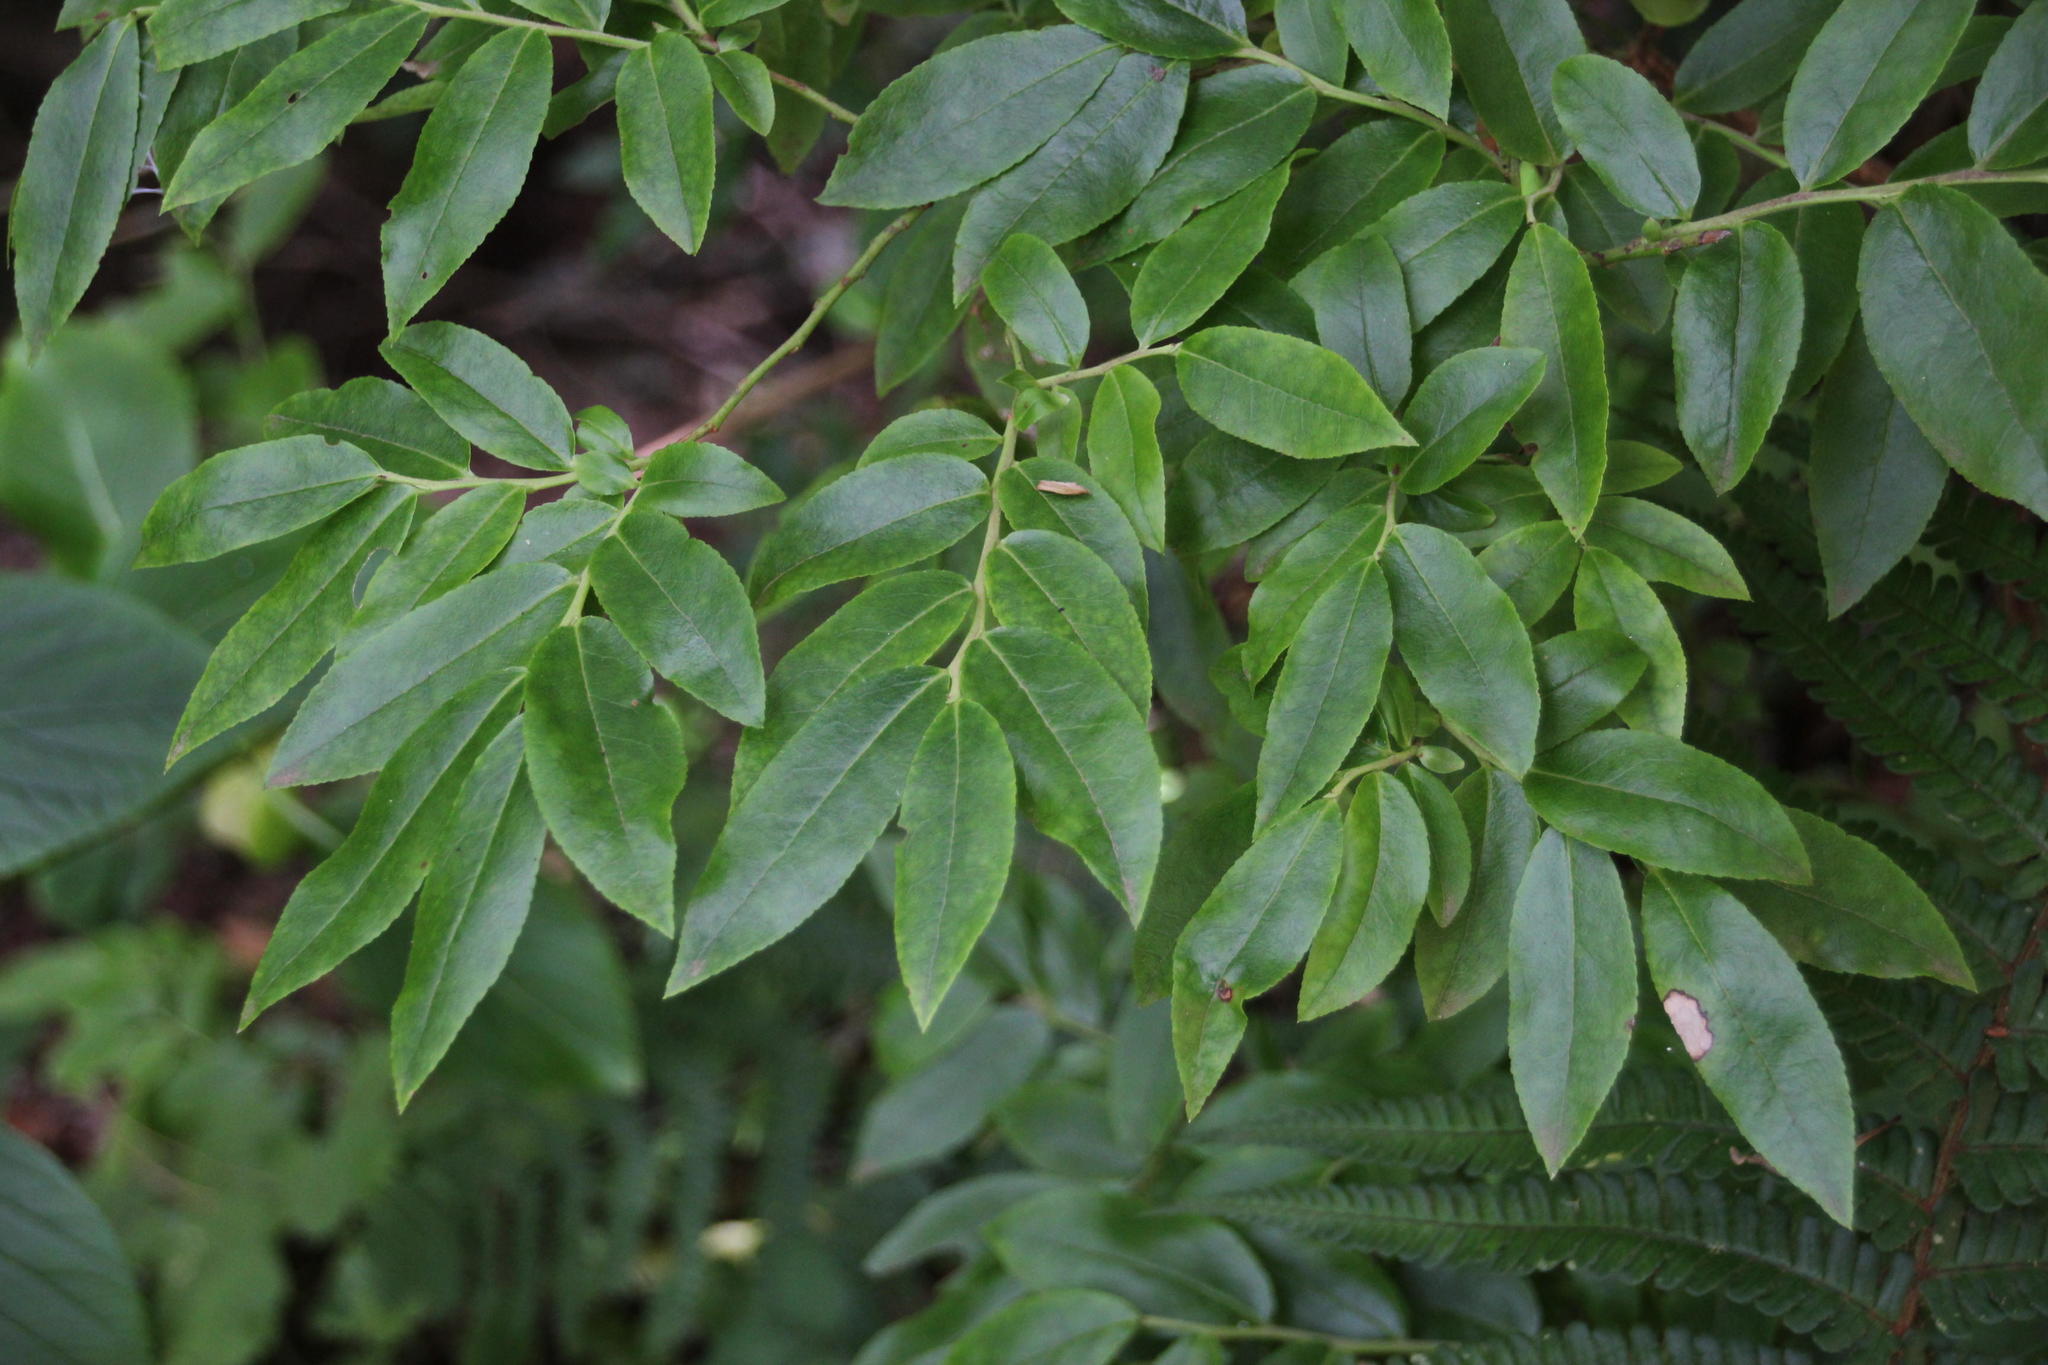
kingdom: Plantae
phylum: Tracheophyta
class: Magnoliopsida
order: Ericales
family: Ericaceae
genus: Vaccinium
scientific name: Vaccinium padifolium
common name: Madeiran blueberry
